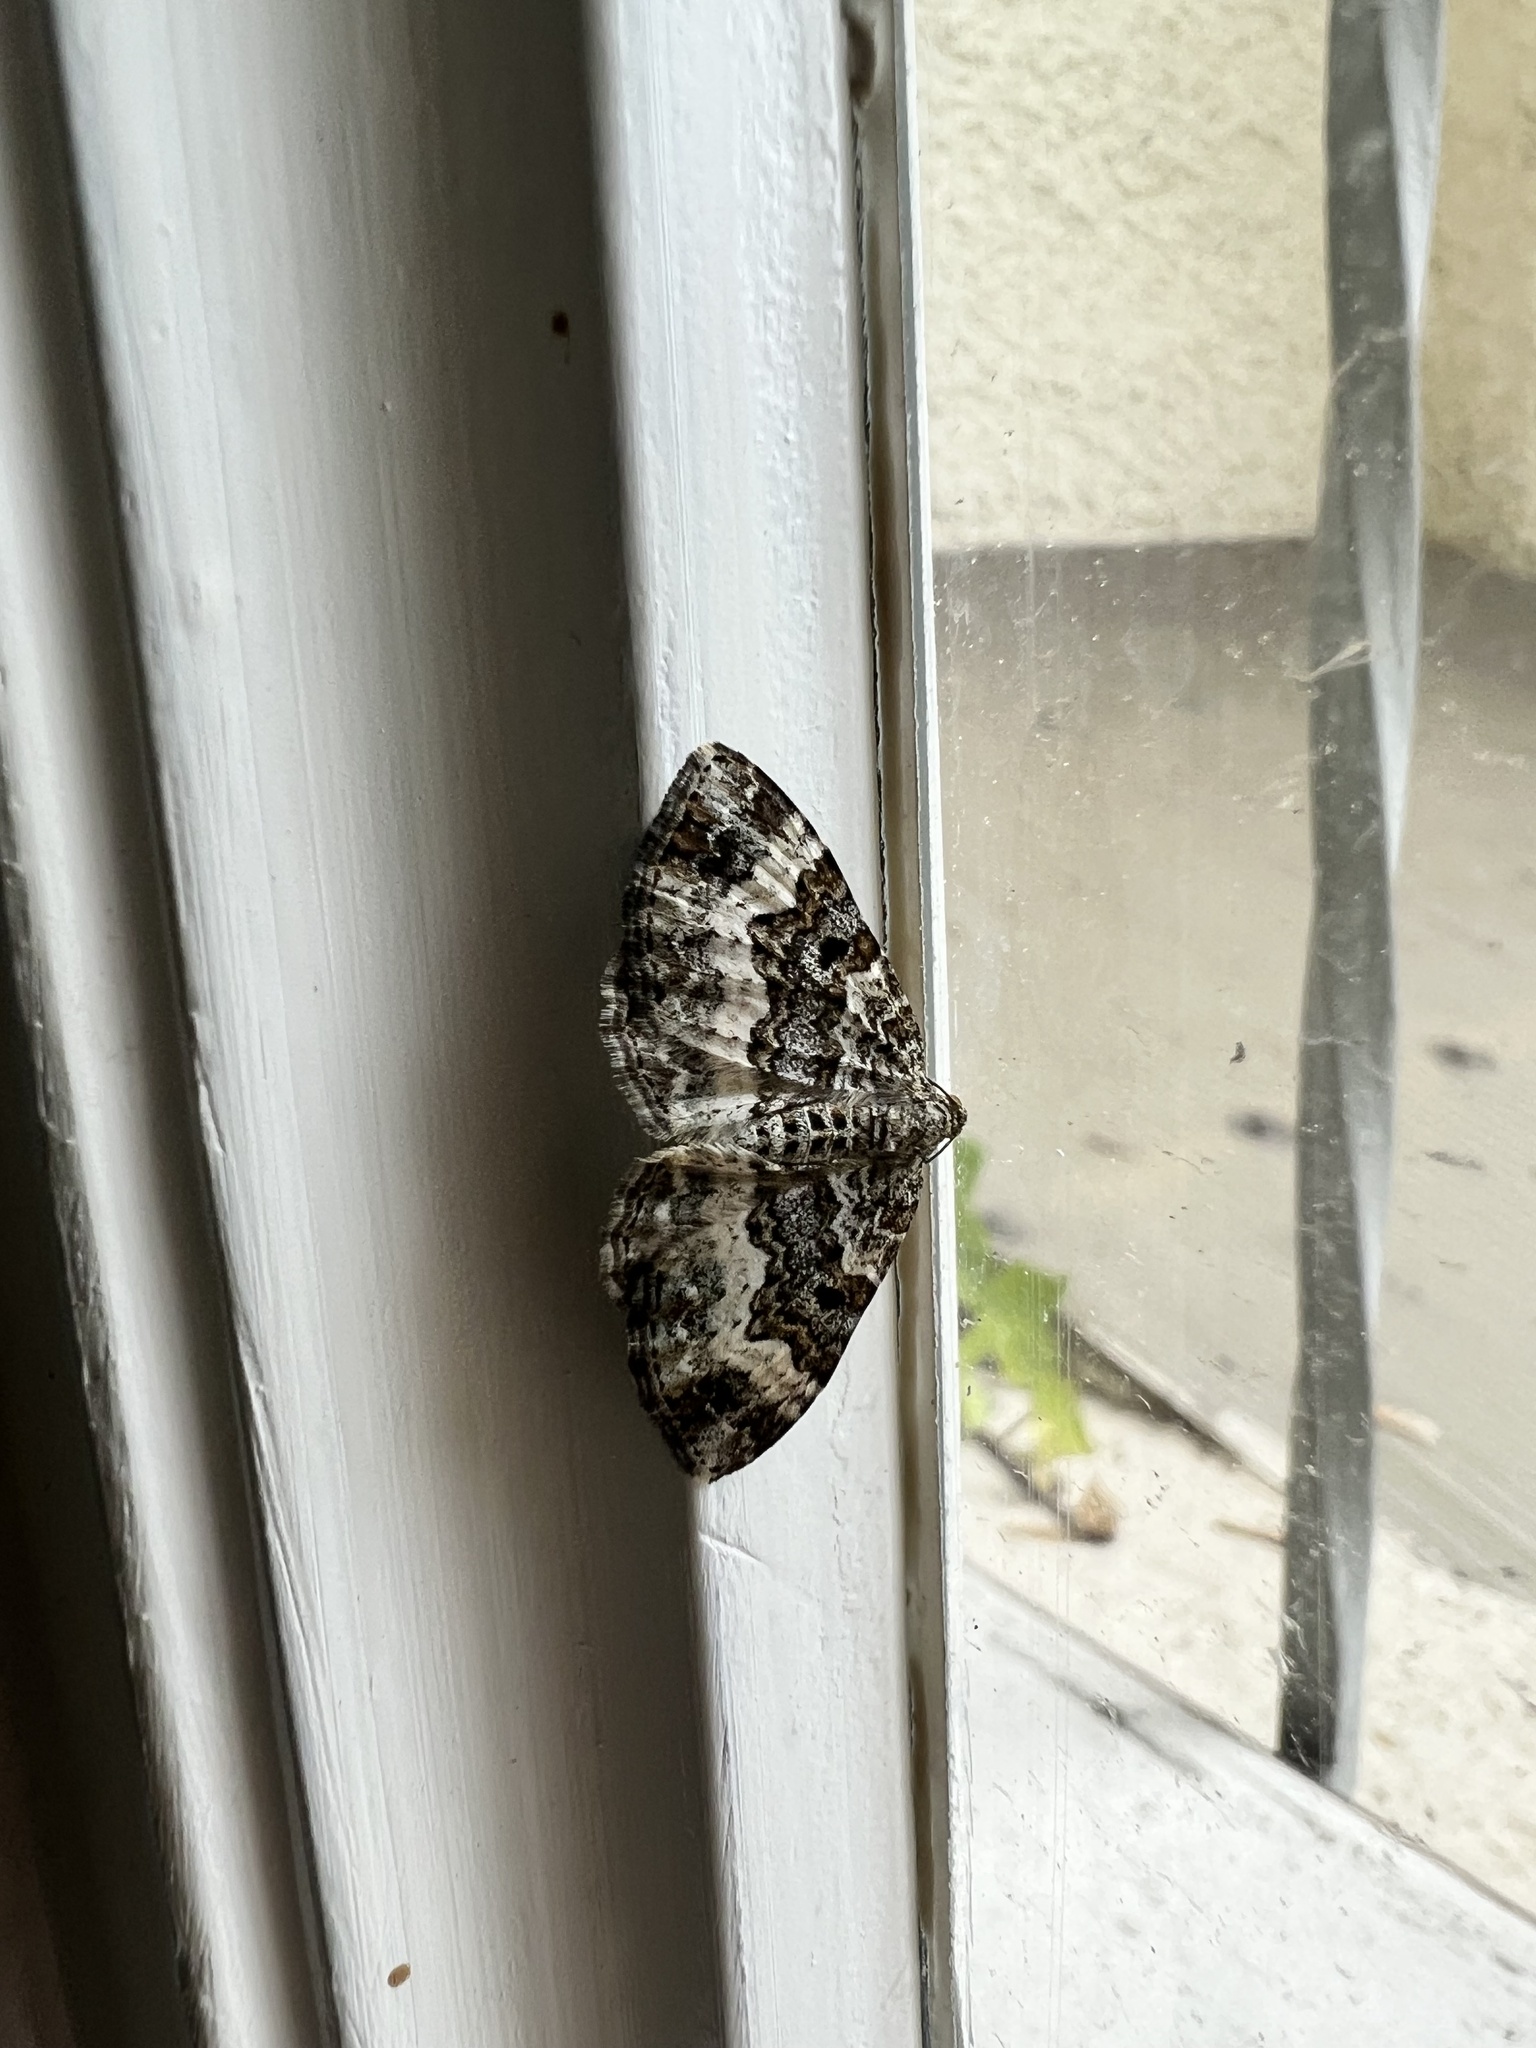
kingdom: Animalia
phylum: Arthropoda
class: Insecta
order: Lepidoptera
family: Geometridae
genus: Epirrhoe
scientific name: Epirrhoe alternata
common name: Common carpet
